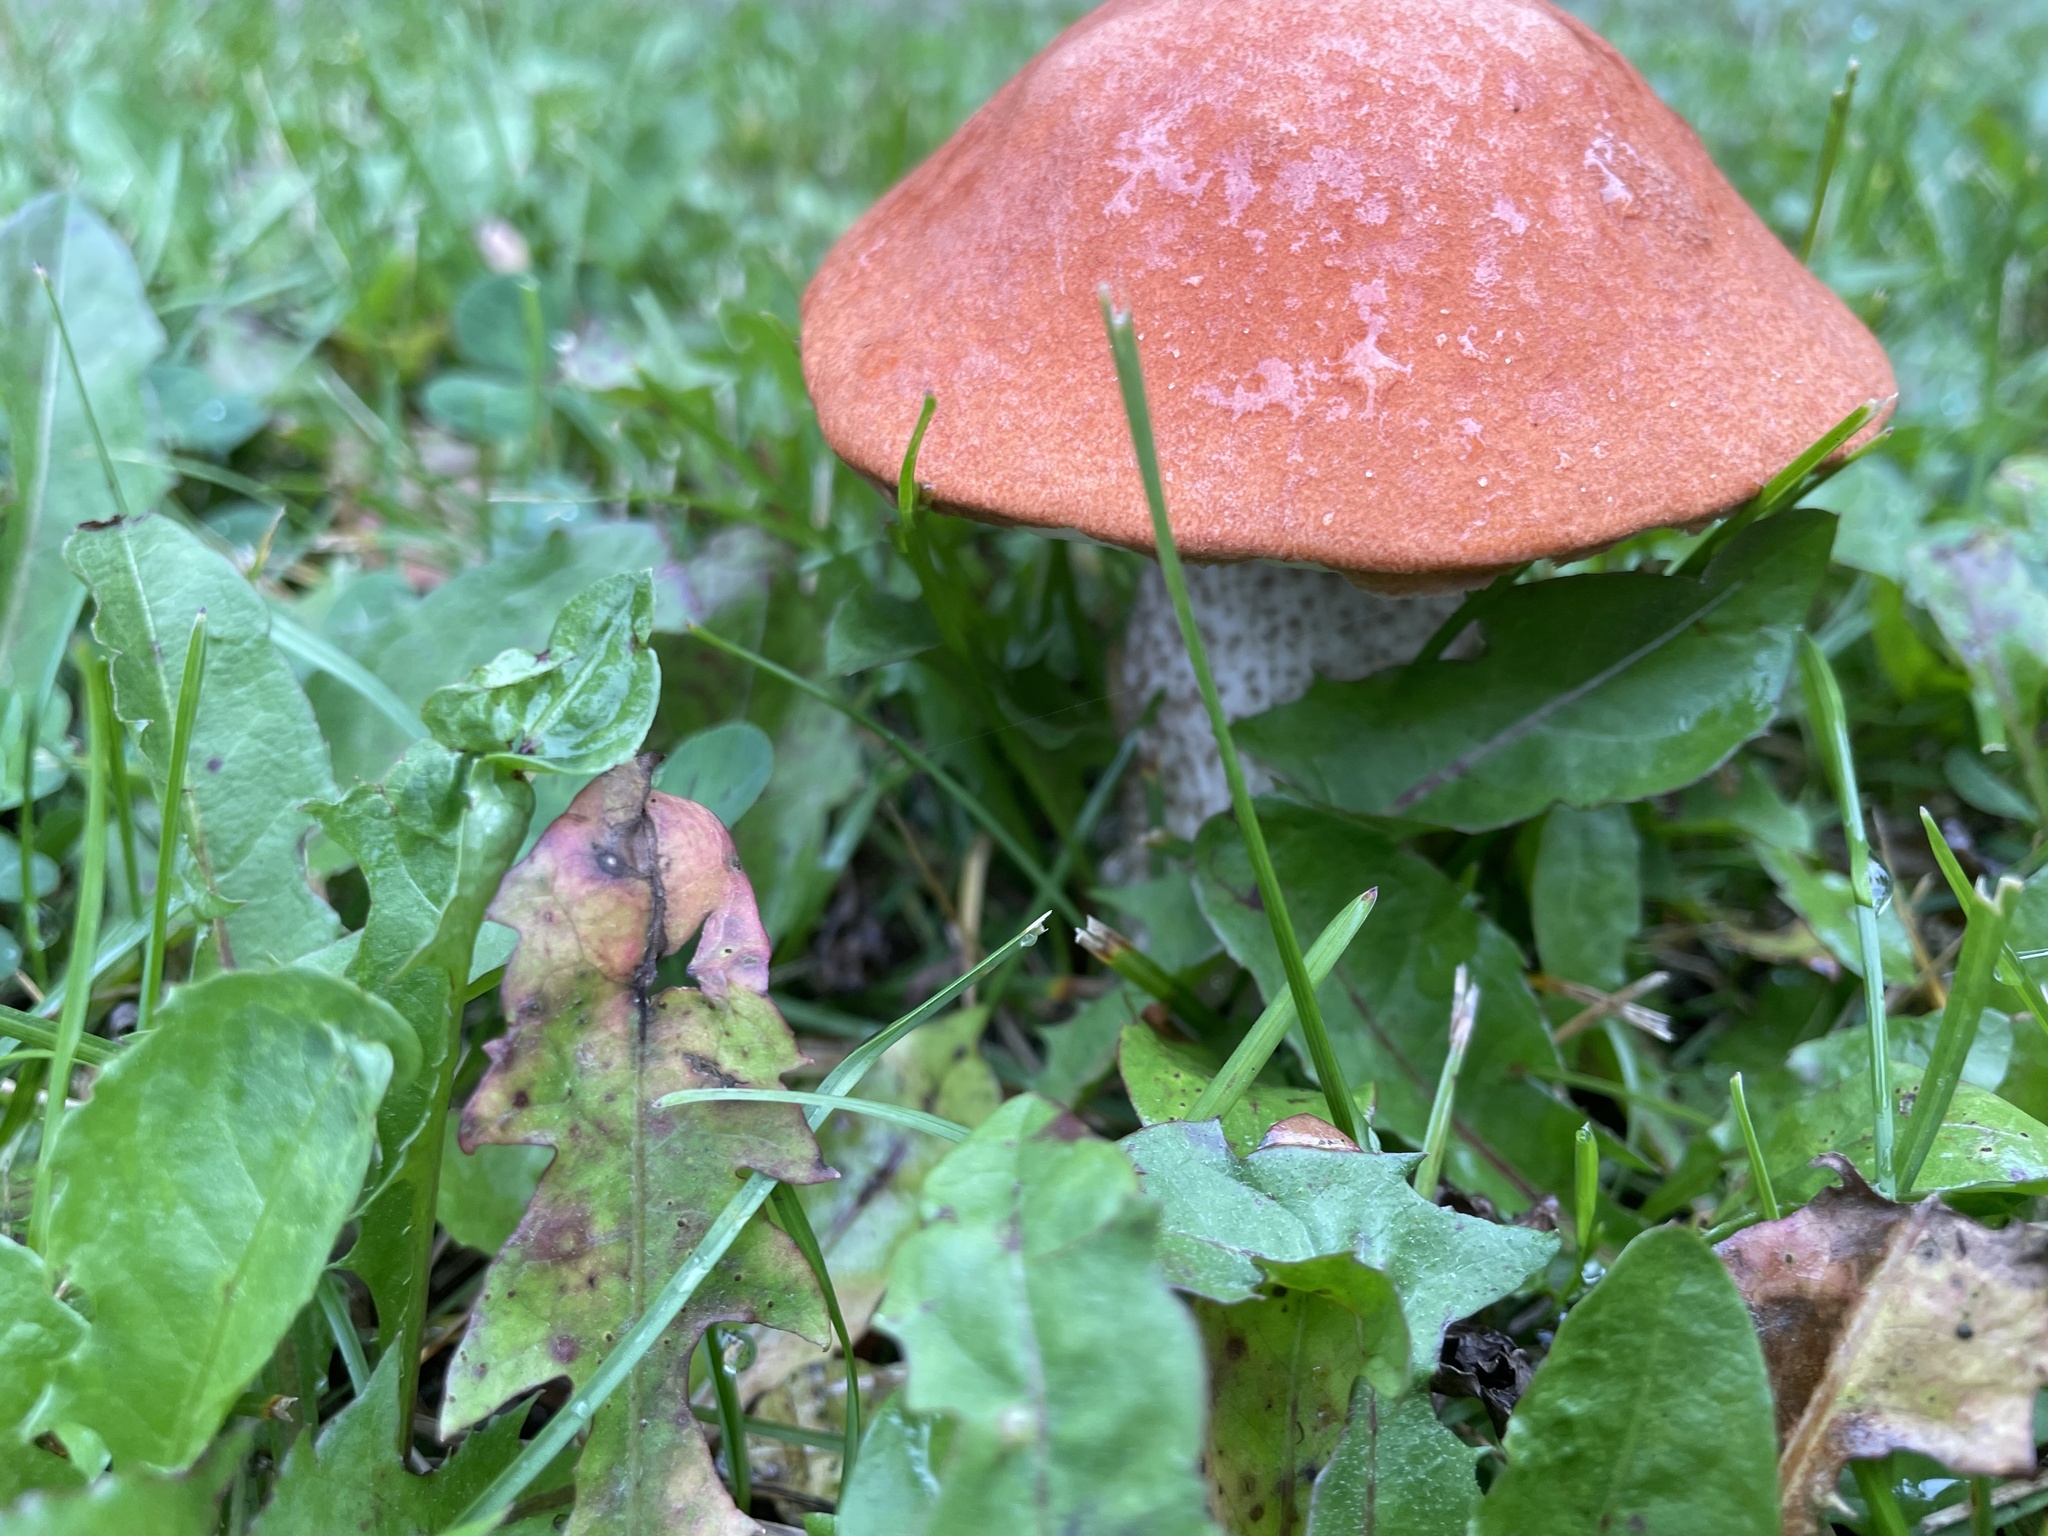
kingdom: Fungi
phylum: Basidiomycota
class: Agaricomycetes
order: Boletales
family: Boletaceae
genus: Leccinum
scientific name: Leccinum boreale
